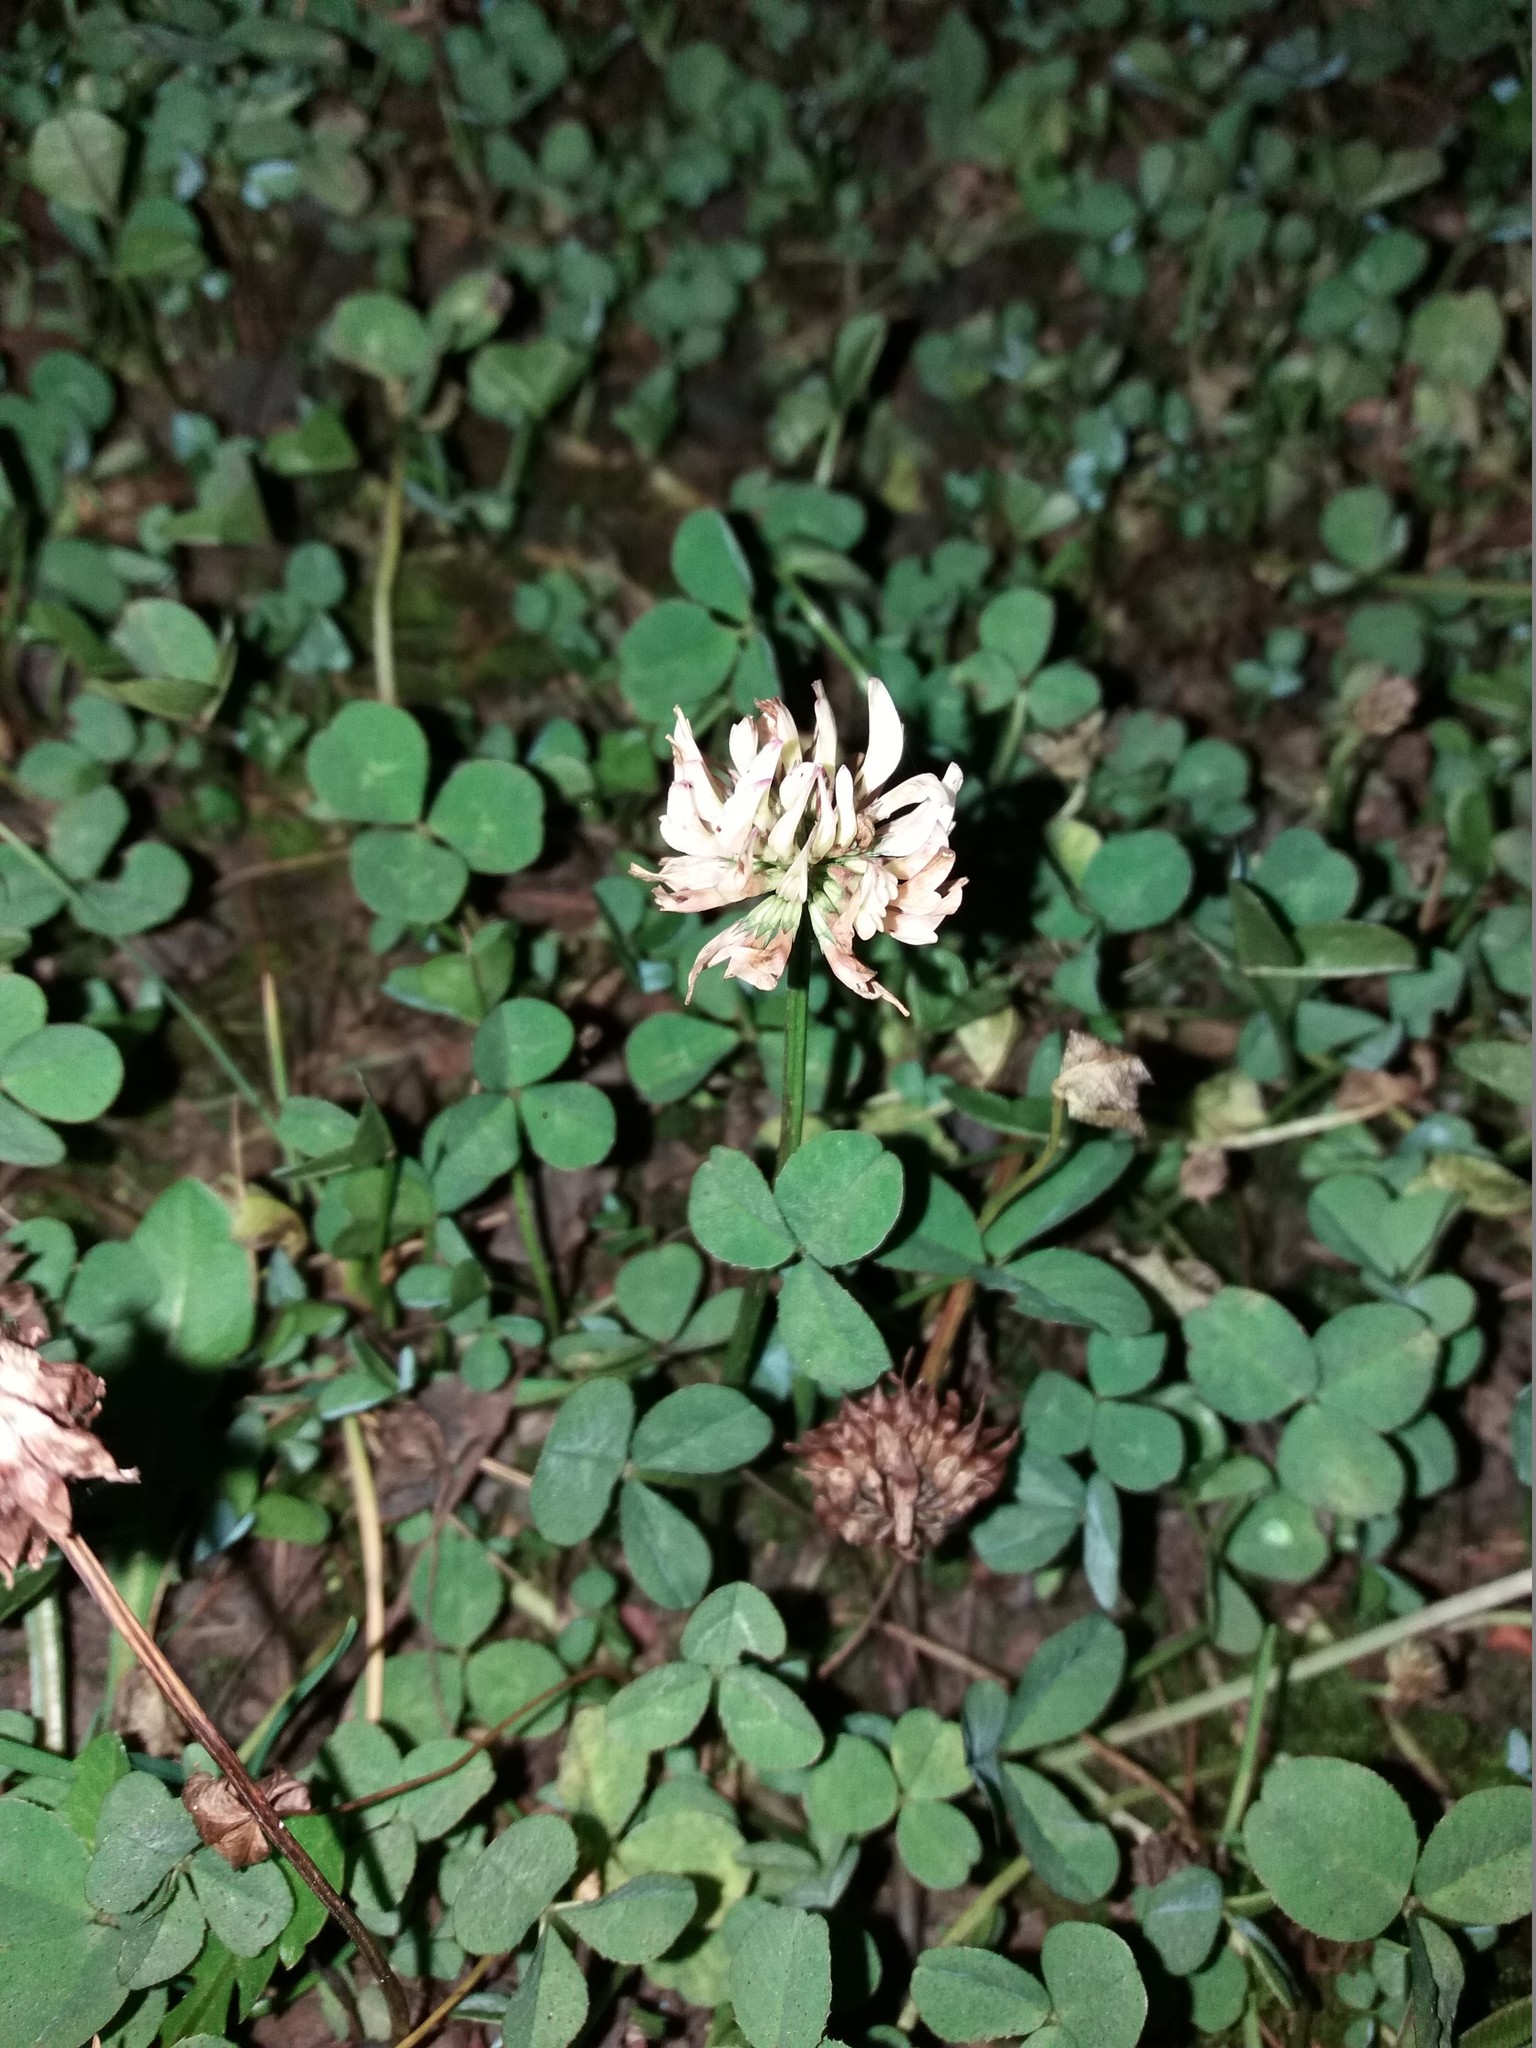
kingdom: Plantae
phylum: Tracheophyta
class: Magnoliopsida
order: Fabales
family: Fabaceae
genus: Trifolium
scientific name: Trifolium repens
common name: White clover
